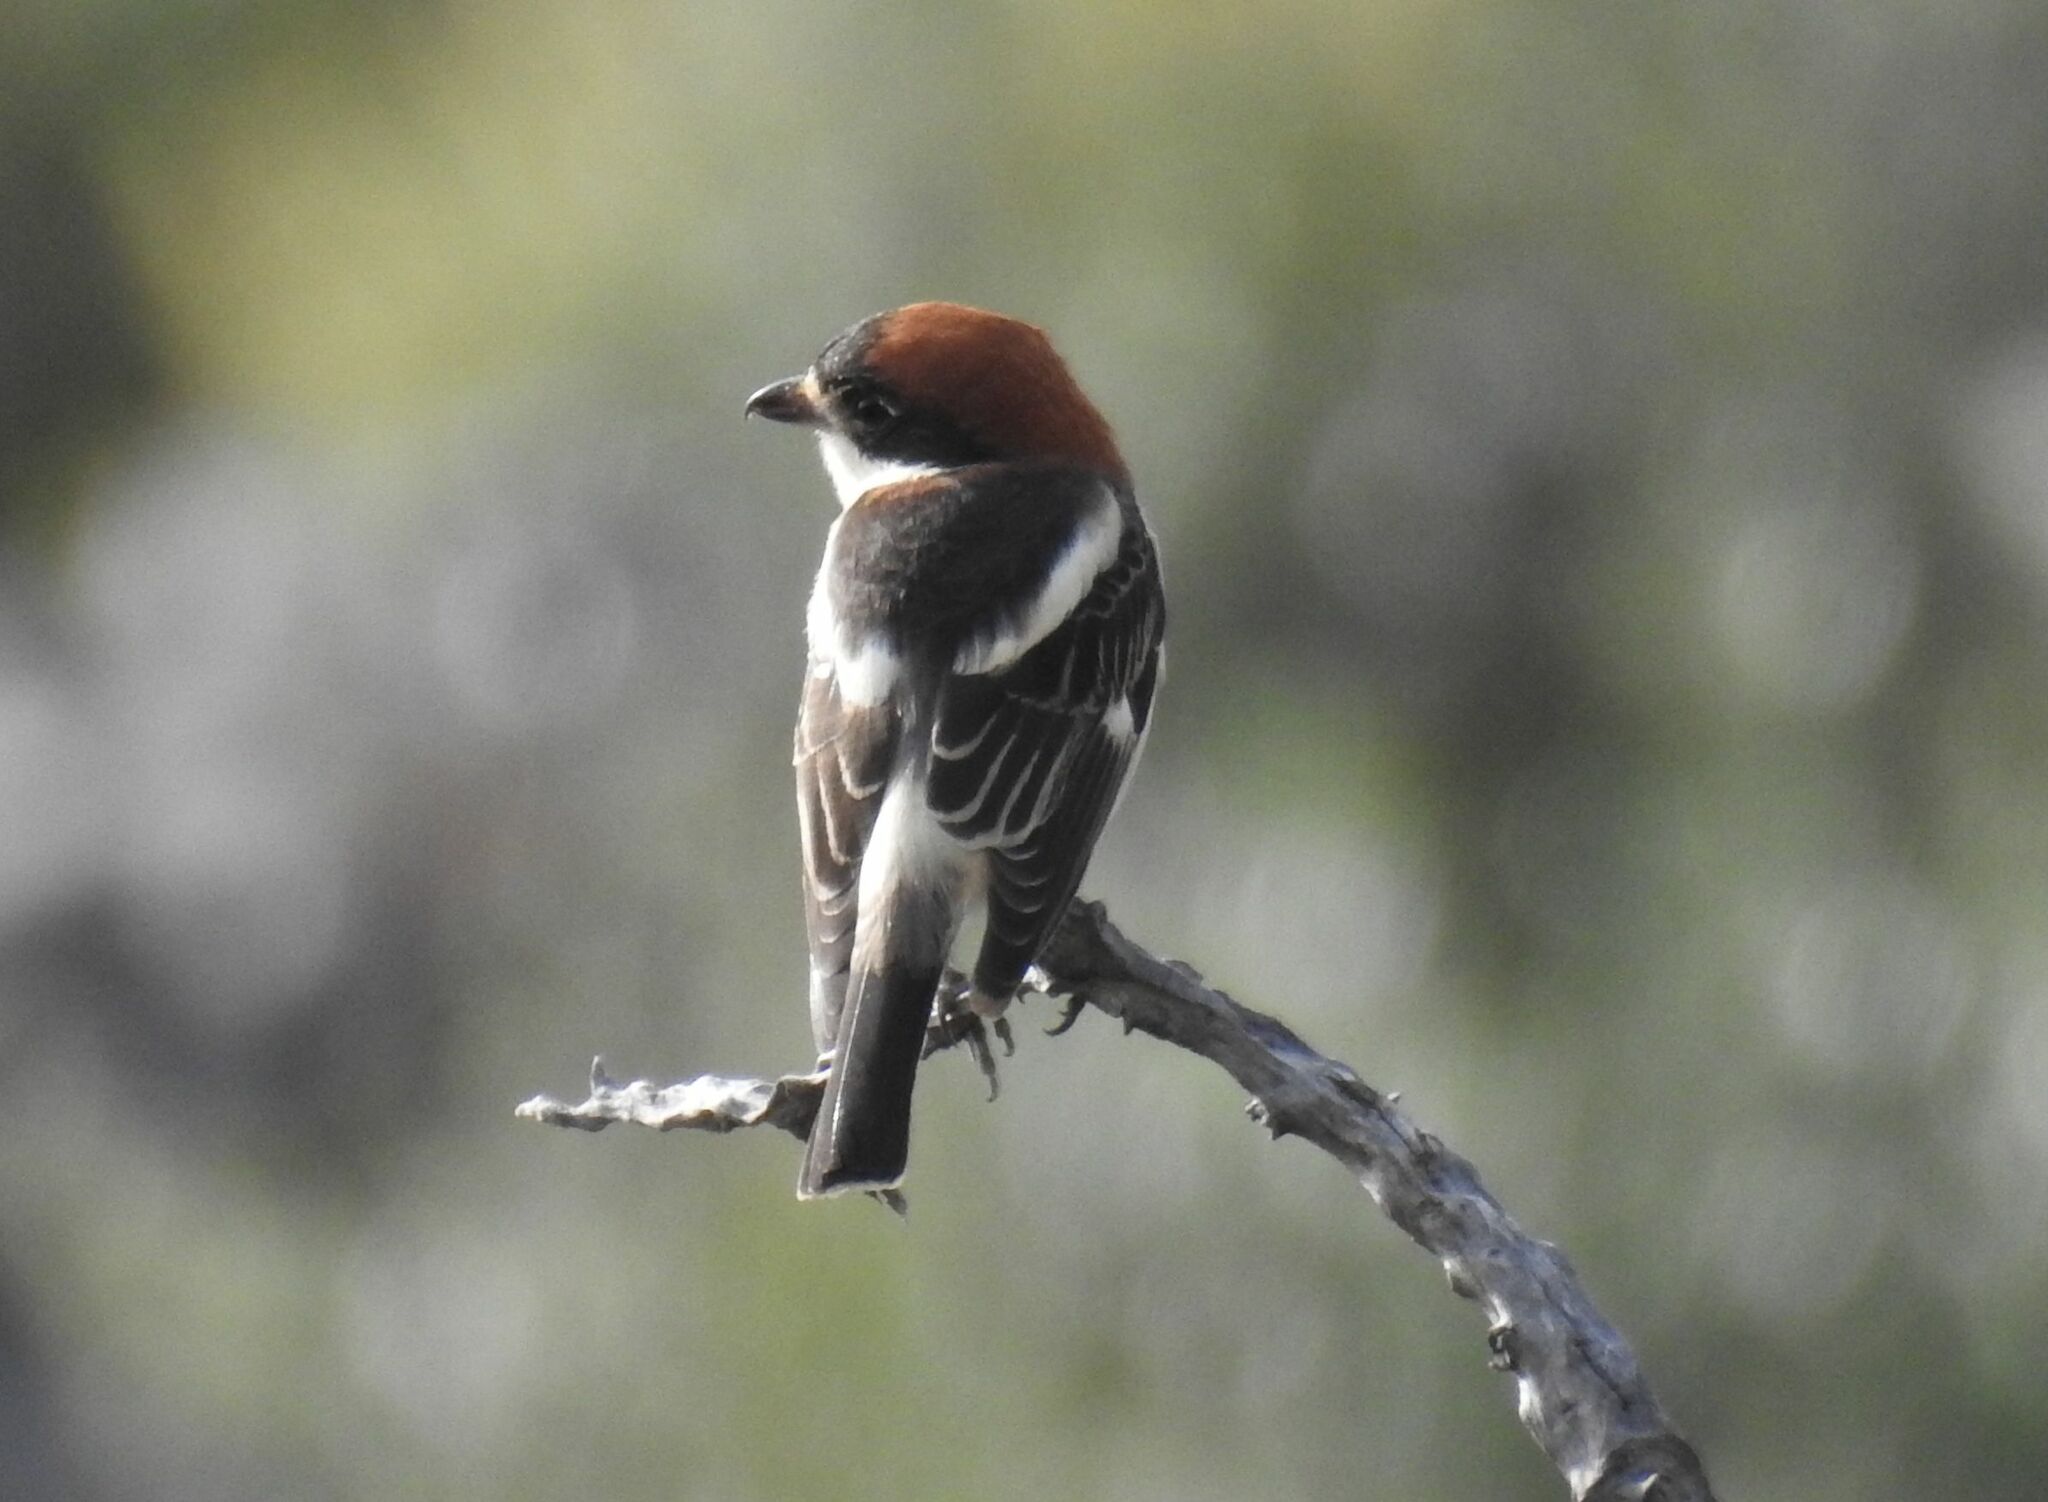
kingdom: Animalia
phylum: Chordata
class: Aves
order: Passeriformes
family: Laniidae
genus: Lanius
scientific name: Lanius senator
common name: Woodchat shrike
